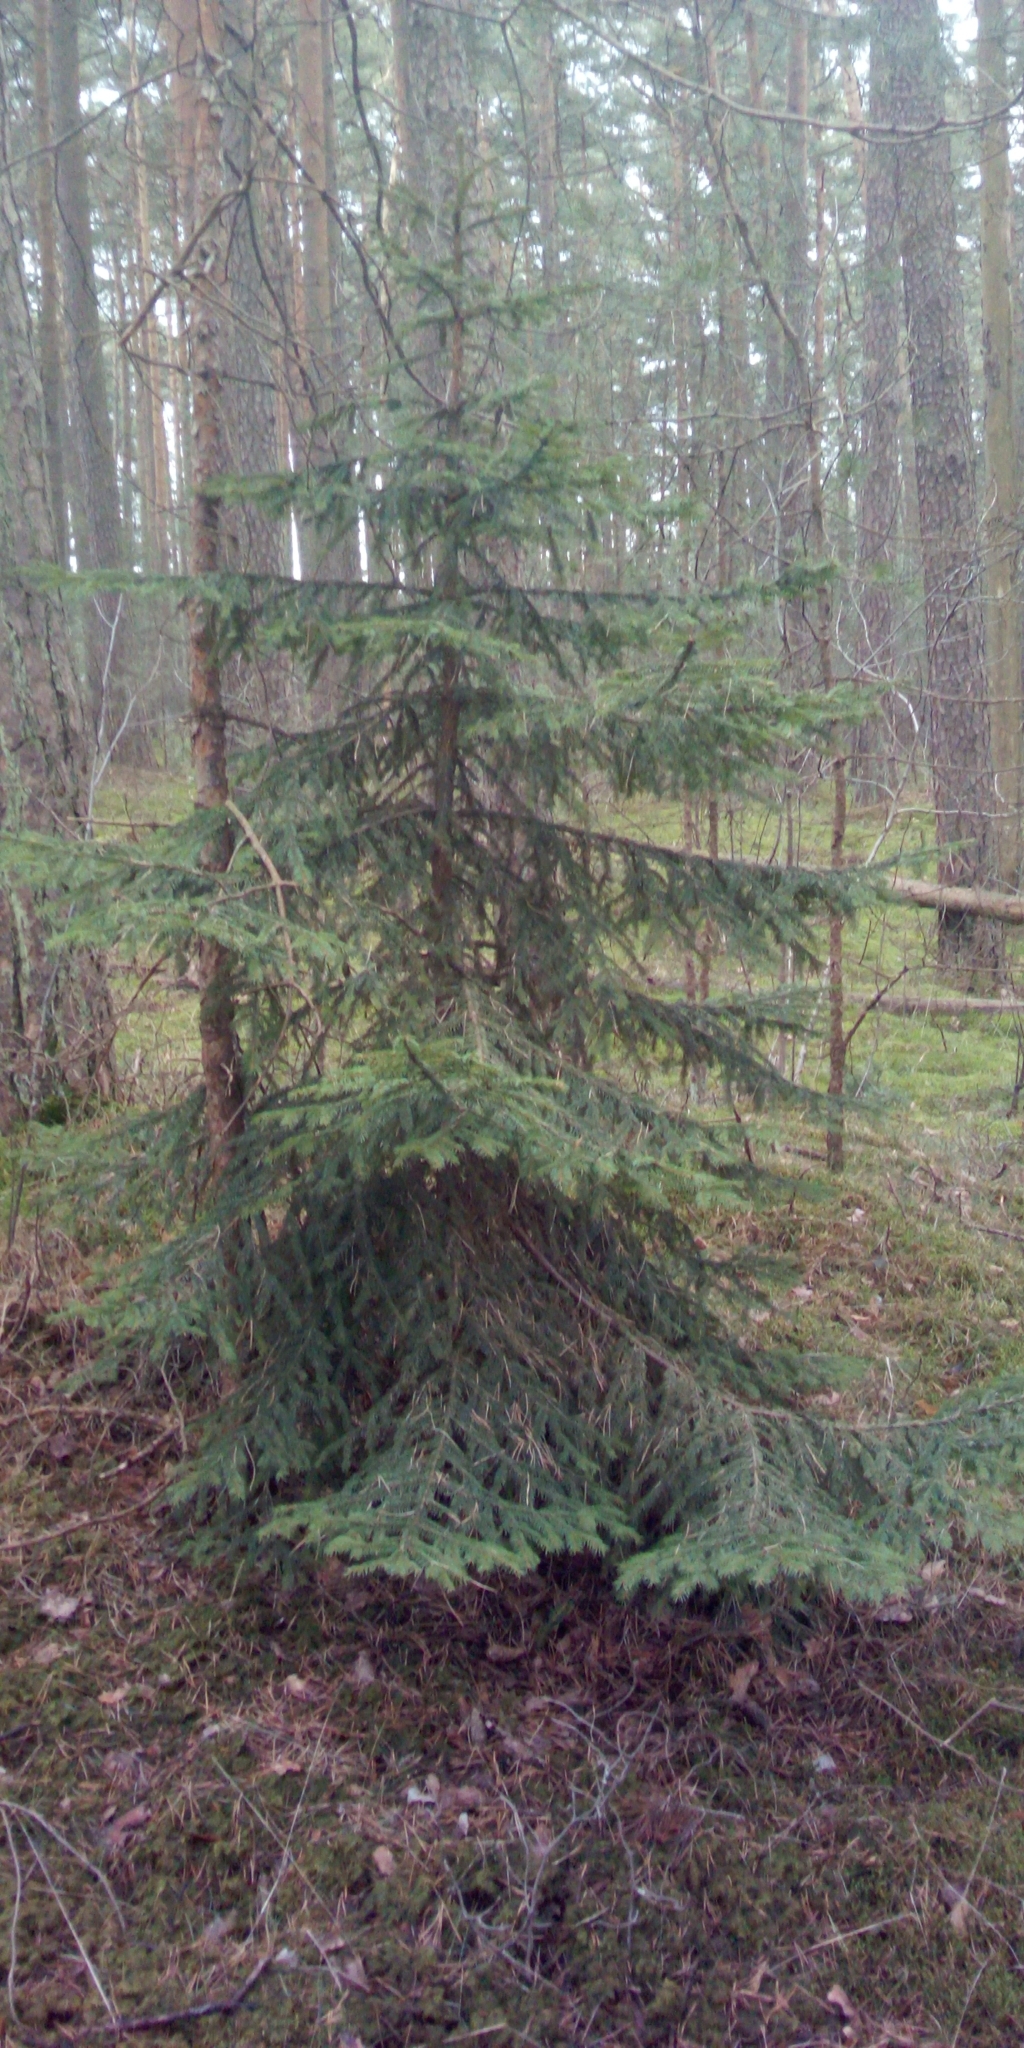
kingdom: Plantae
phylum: Tracheophyta
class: Pinopsida
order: Pinales
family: Pinaceae
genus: Picea
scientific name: Picea abies
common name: Norway spruce
